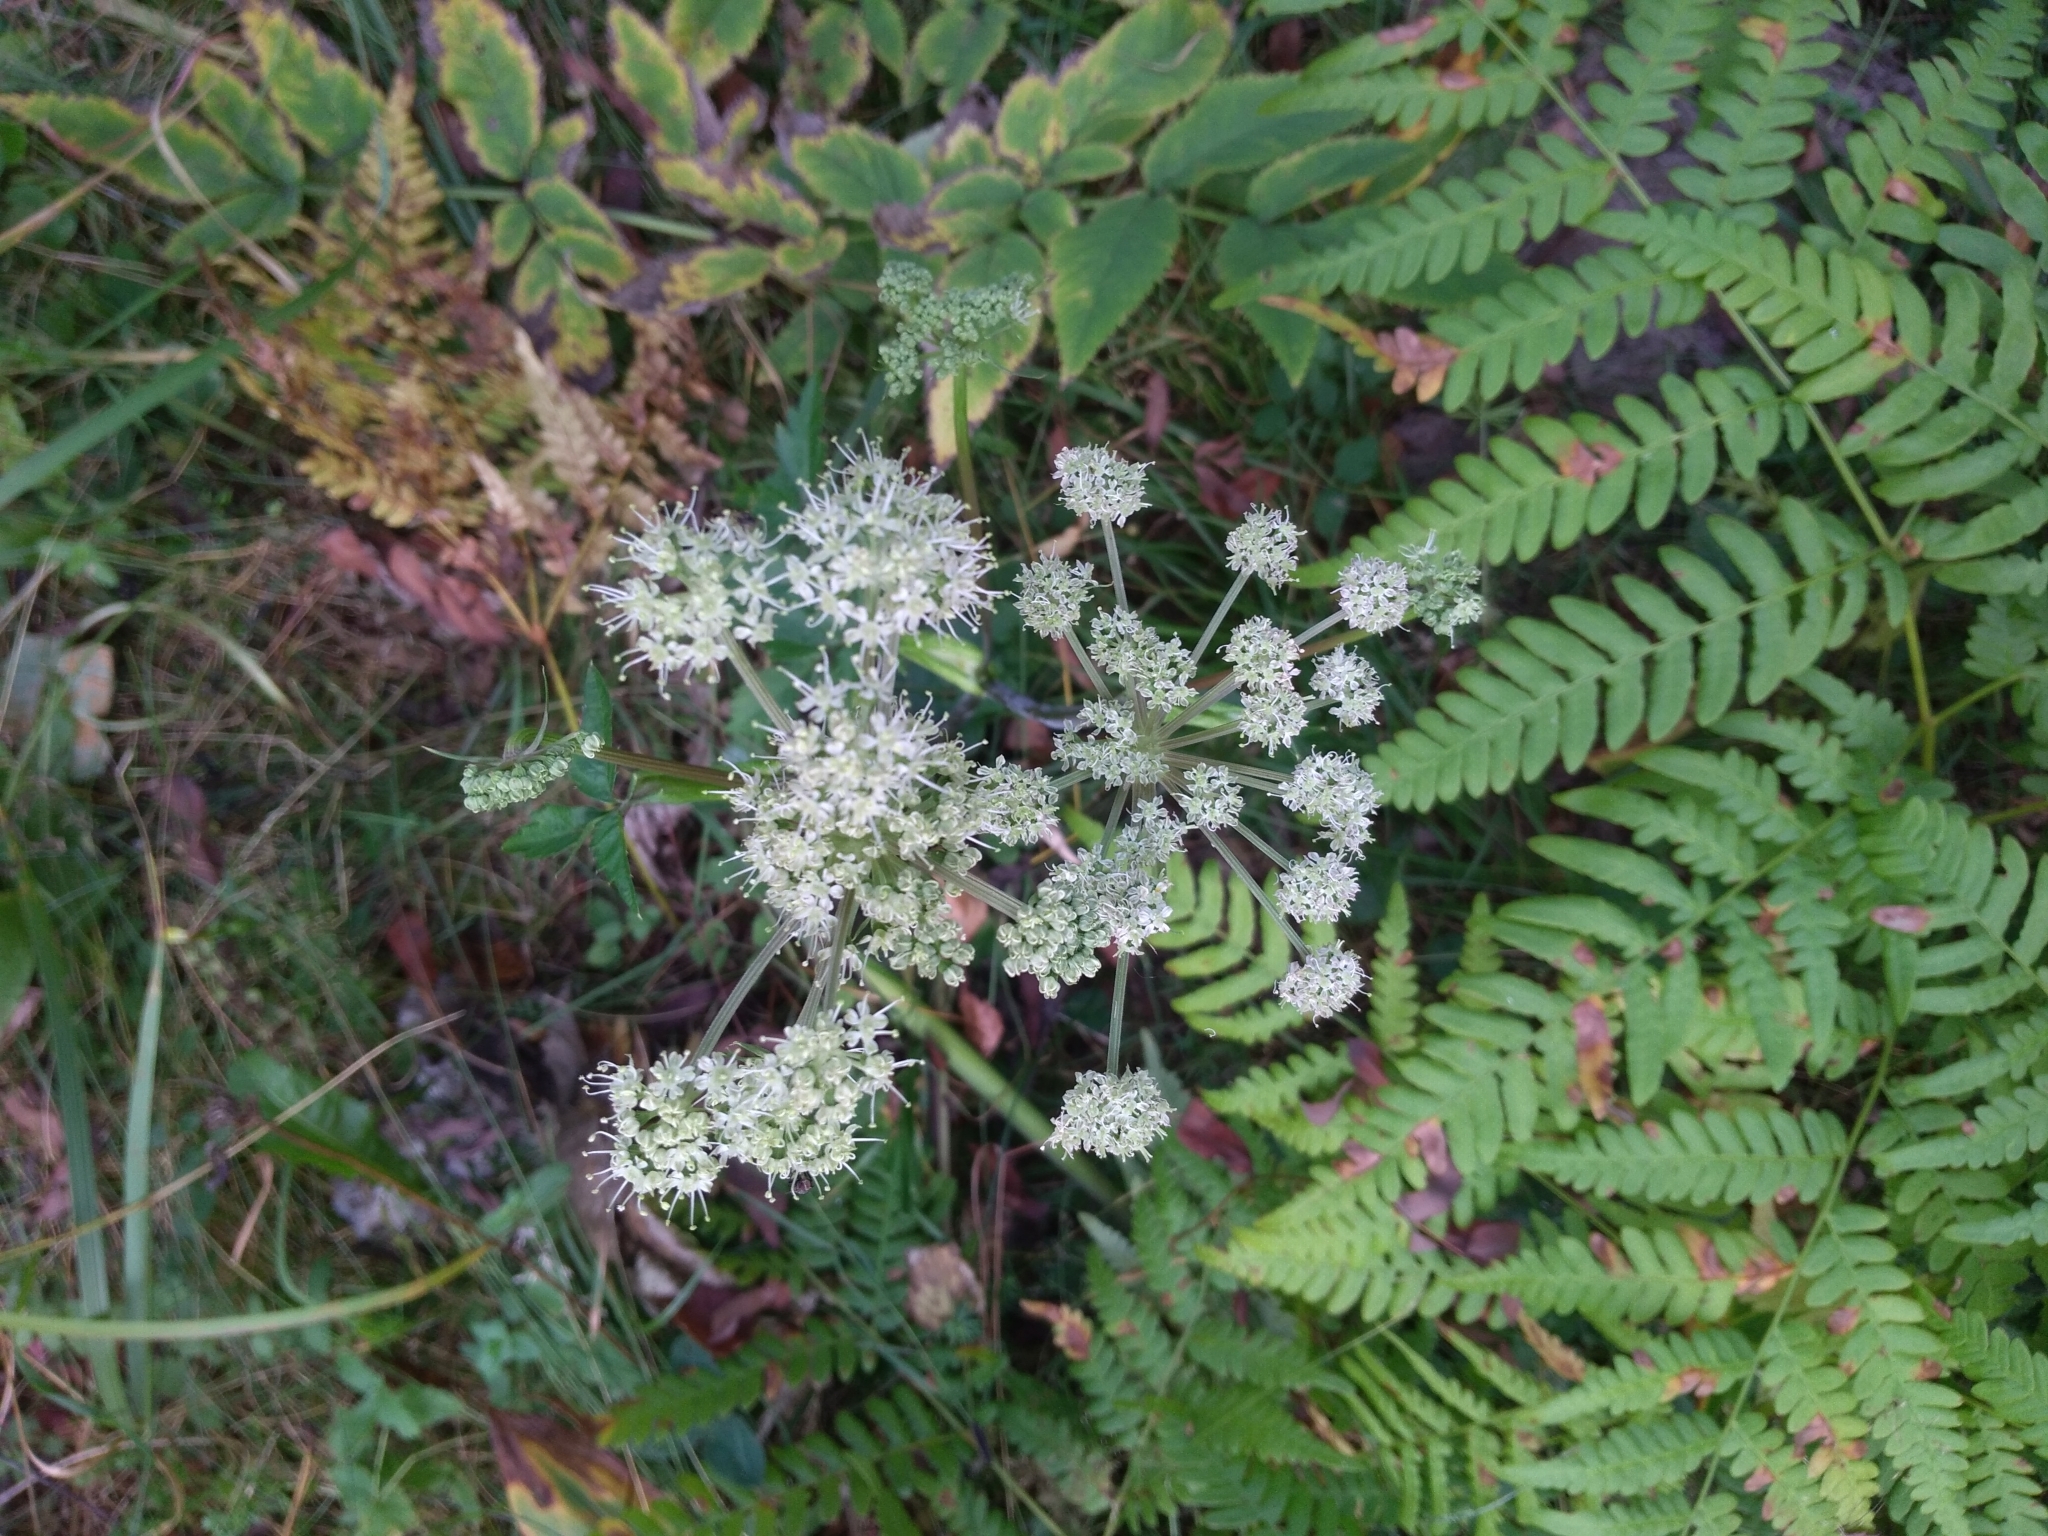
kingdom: Plantae
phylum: Tracheophyta
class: Magnoliopsida
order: Apiales
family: Apiaceae
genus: Angelica
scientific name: Angelica sylvestris
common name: Wild angelica
